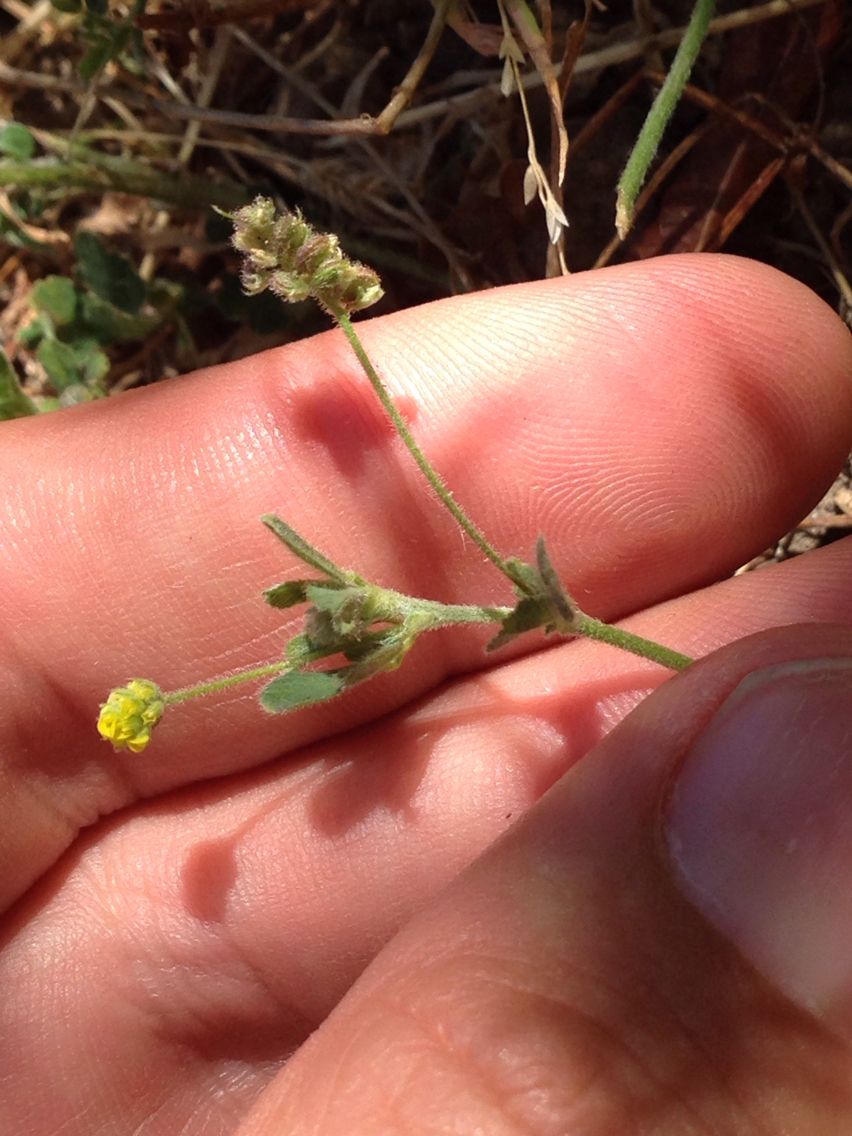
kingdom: Plantae
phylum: Tracheophyta
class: Magnoliopsida
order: Fabales
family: Fabaceae
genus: Medicago
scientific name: Medicago lupulina
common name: Black medick
